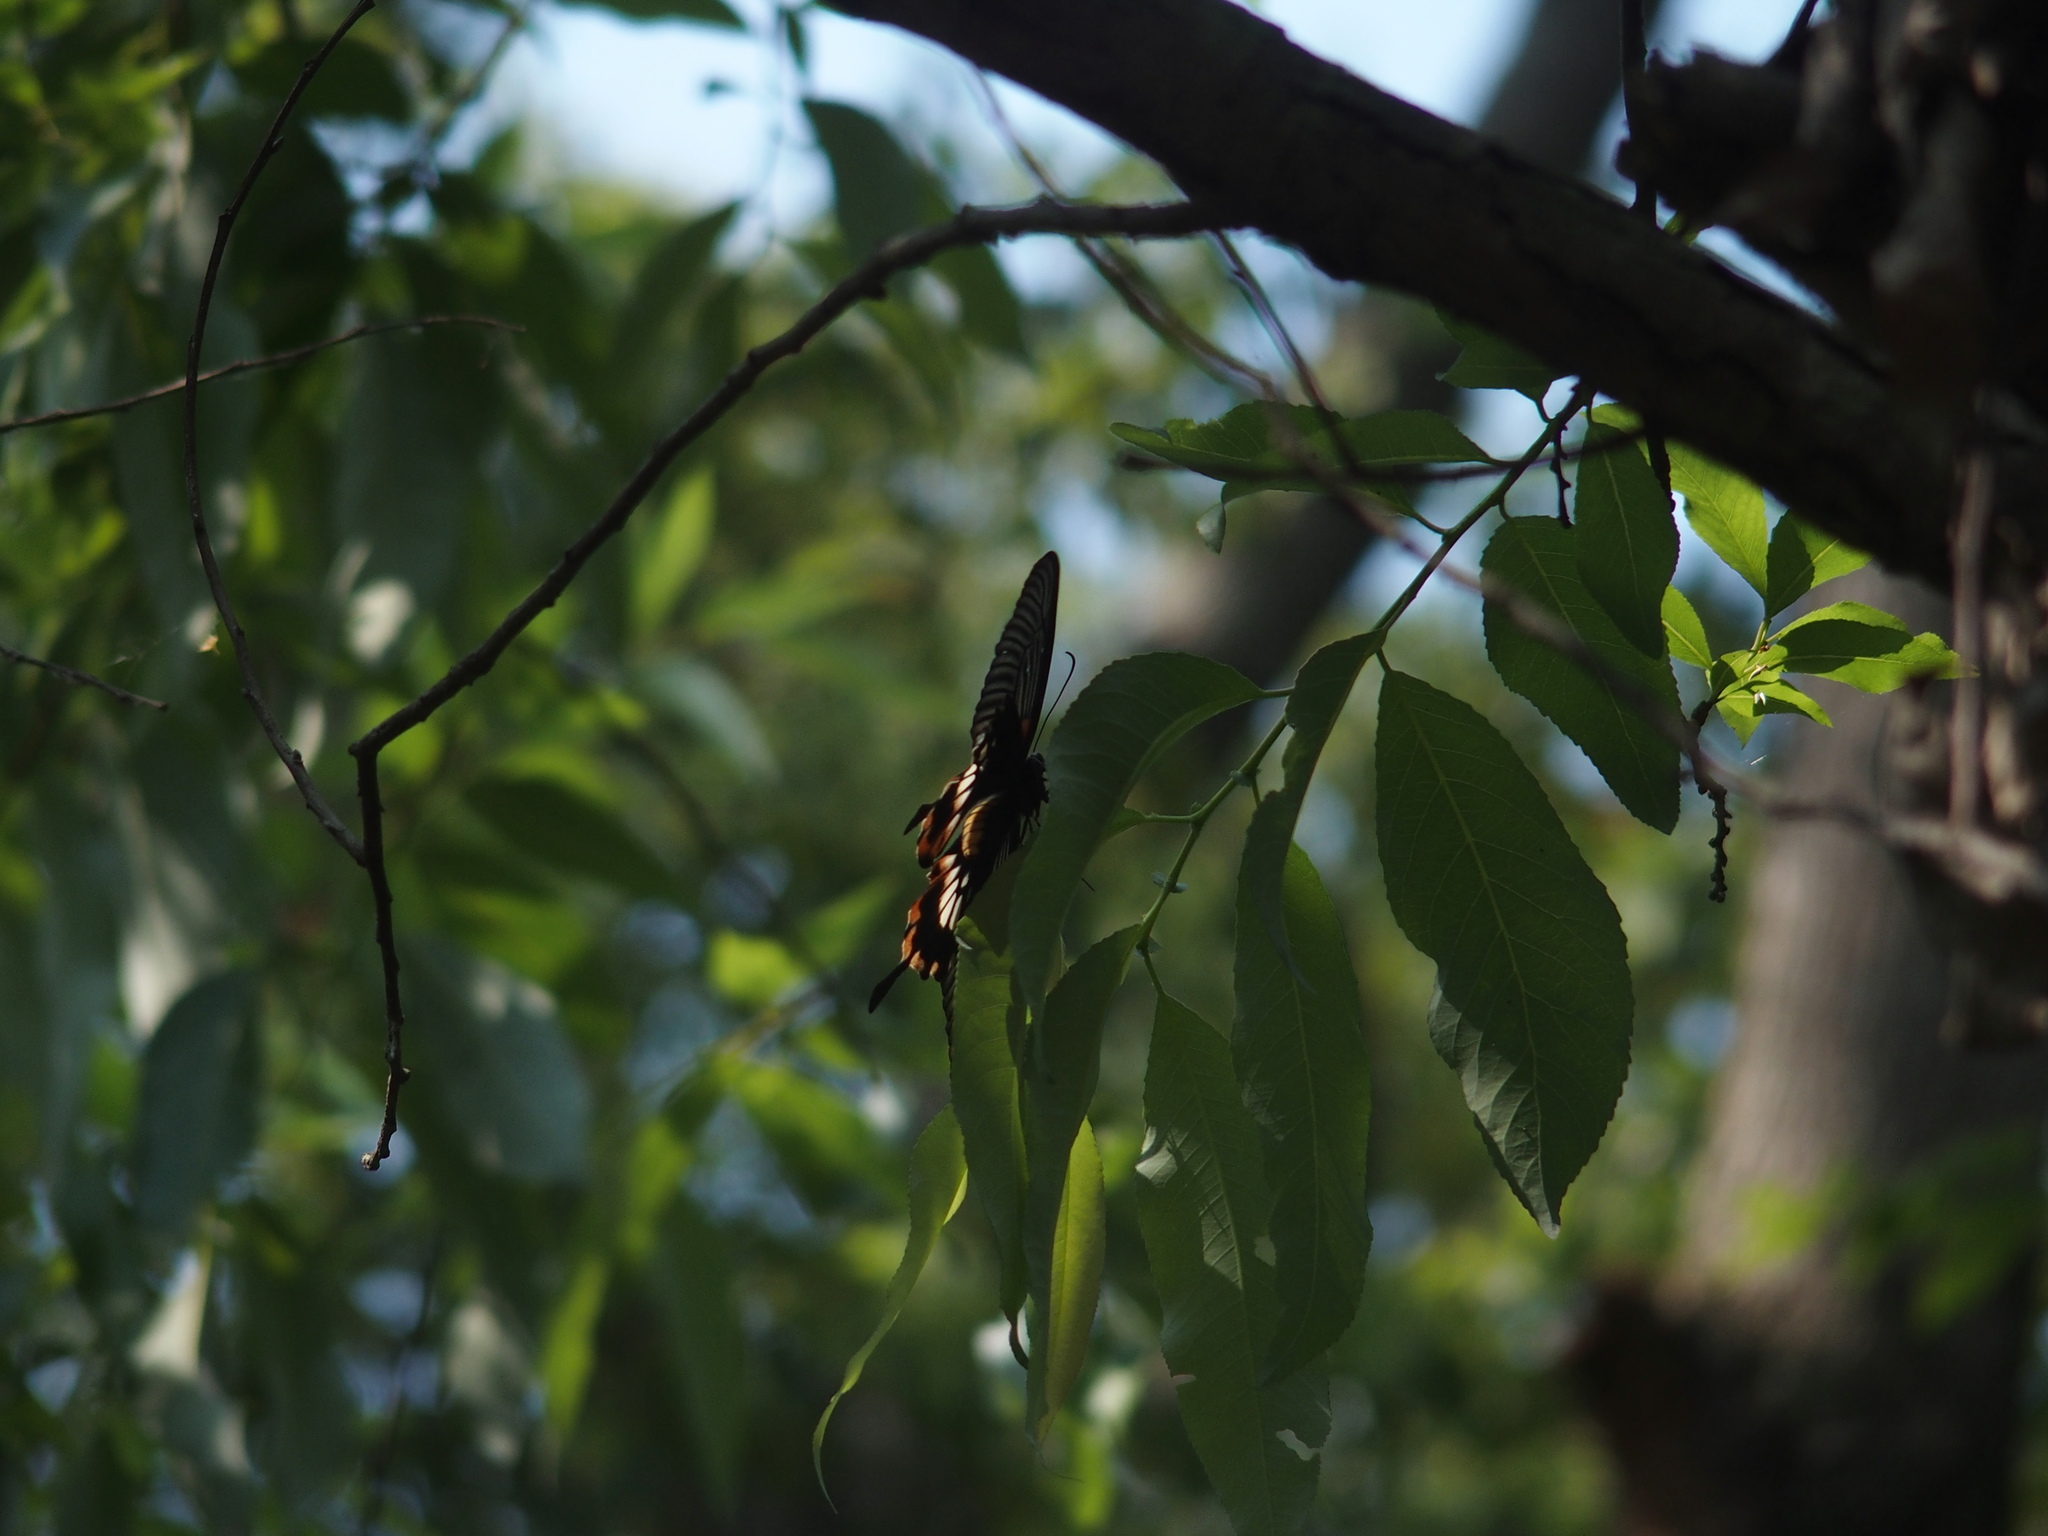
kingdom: Animalia
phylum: Arthropoda
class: Insecta
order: Lepidoptera
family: Papilionidae
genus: Papilio
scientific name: Papilio memnon
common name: Great mormon
